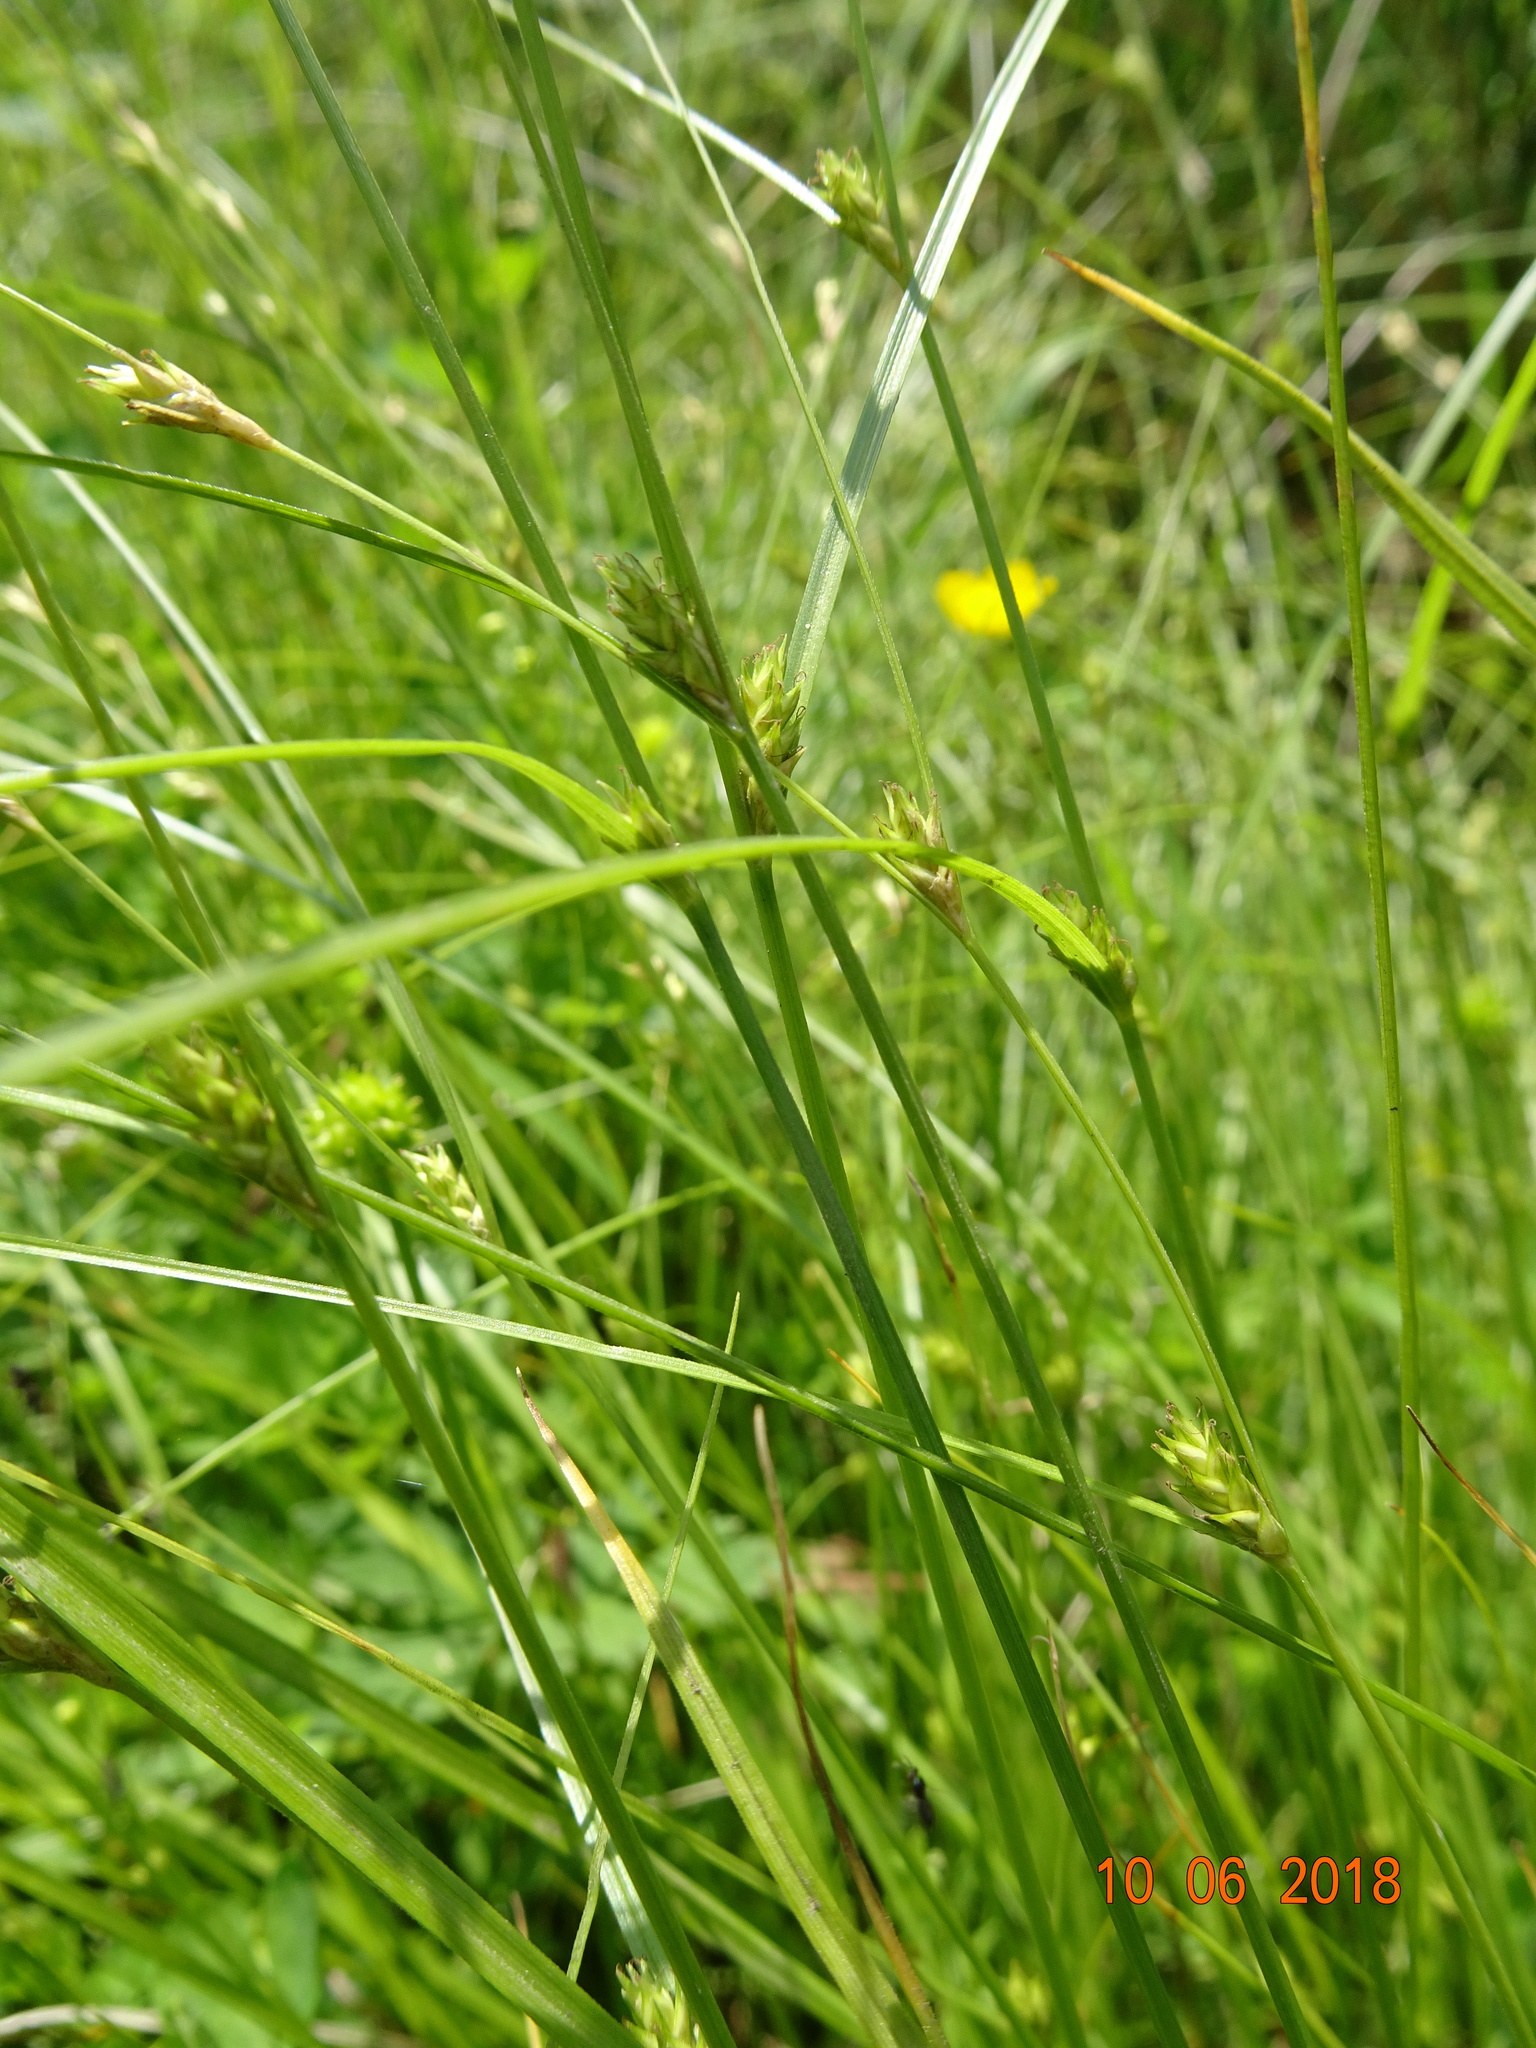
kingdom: Plantae
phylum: Tracheophyta
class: Liliopsida
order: Poales
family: Cyperaceae
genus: Carex
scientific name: Carex remota
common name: Remote sedge
